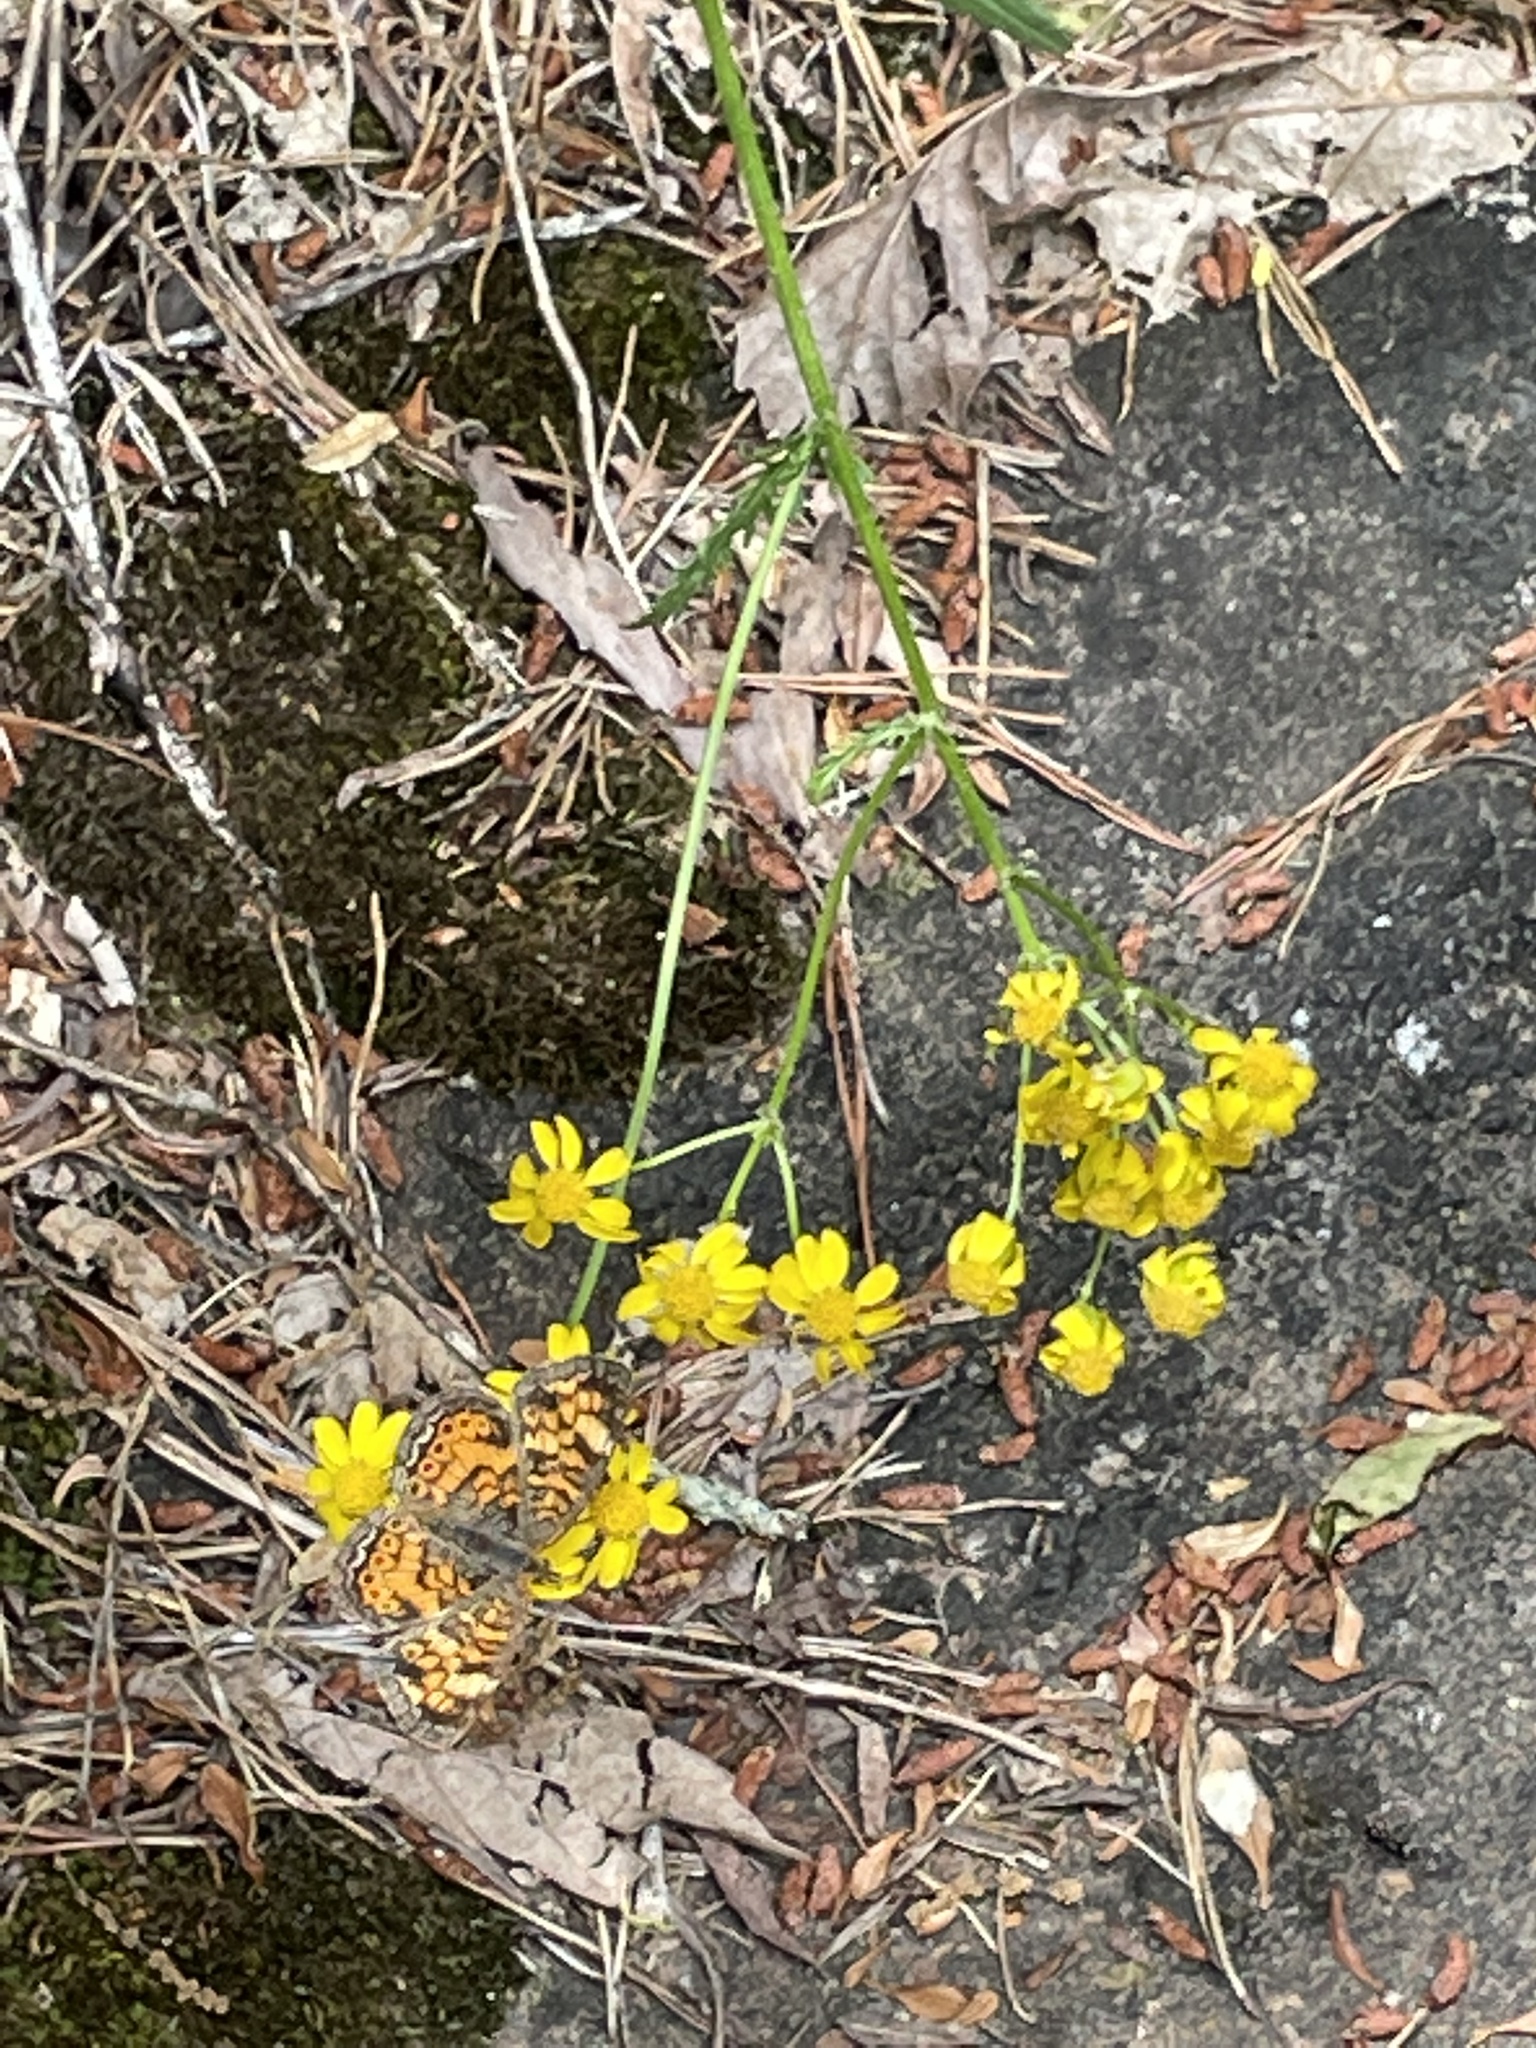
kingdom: Plantae
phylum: Tracheophyta
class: Magnoliopsida
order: Asterales
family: Asteraceae
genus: Packera
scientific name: Packera anonyma
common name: Small ragwort
